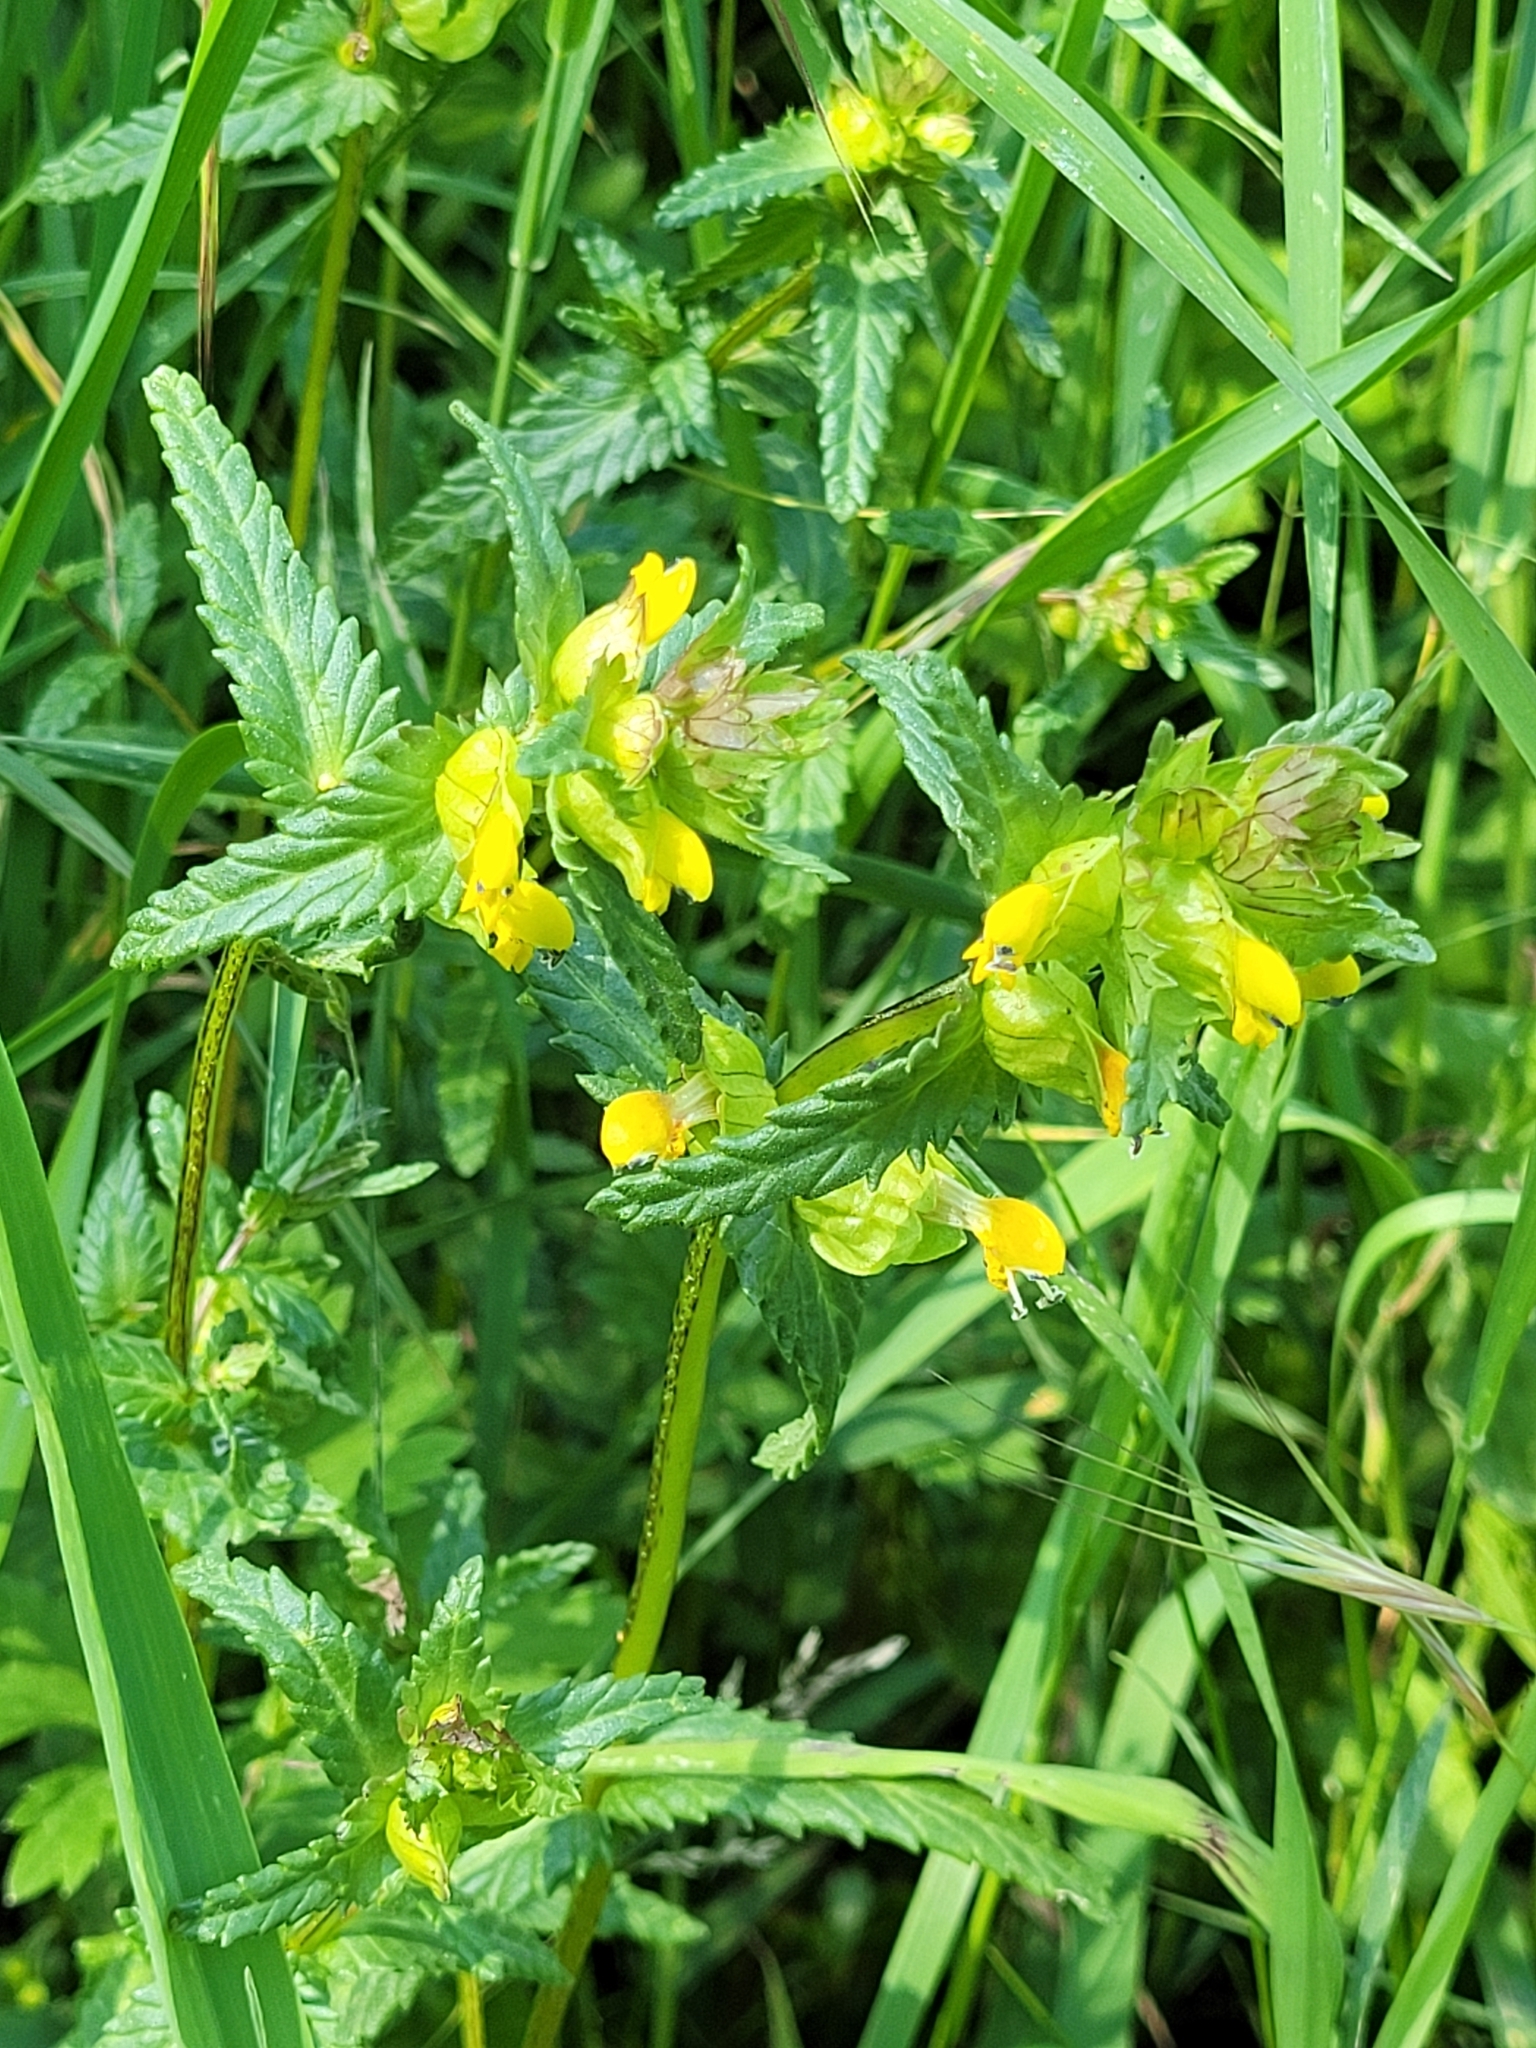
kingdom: Plantae
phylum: Tracheophyta
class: Magnoliopsida
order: Lamiales
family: Orobanchaceae
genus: Rhinanthus
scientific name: Rhinanthus minor
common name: Yellow-rattle
